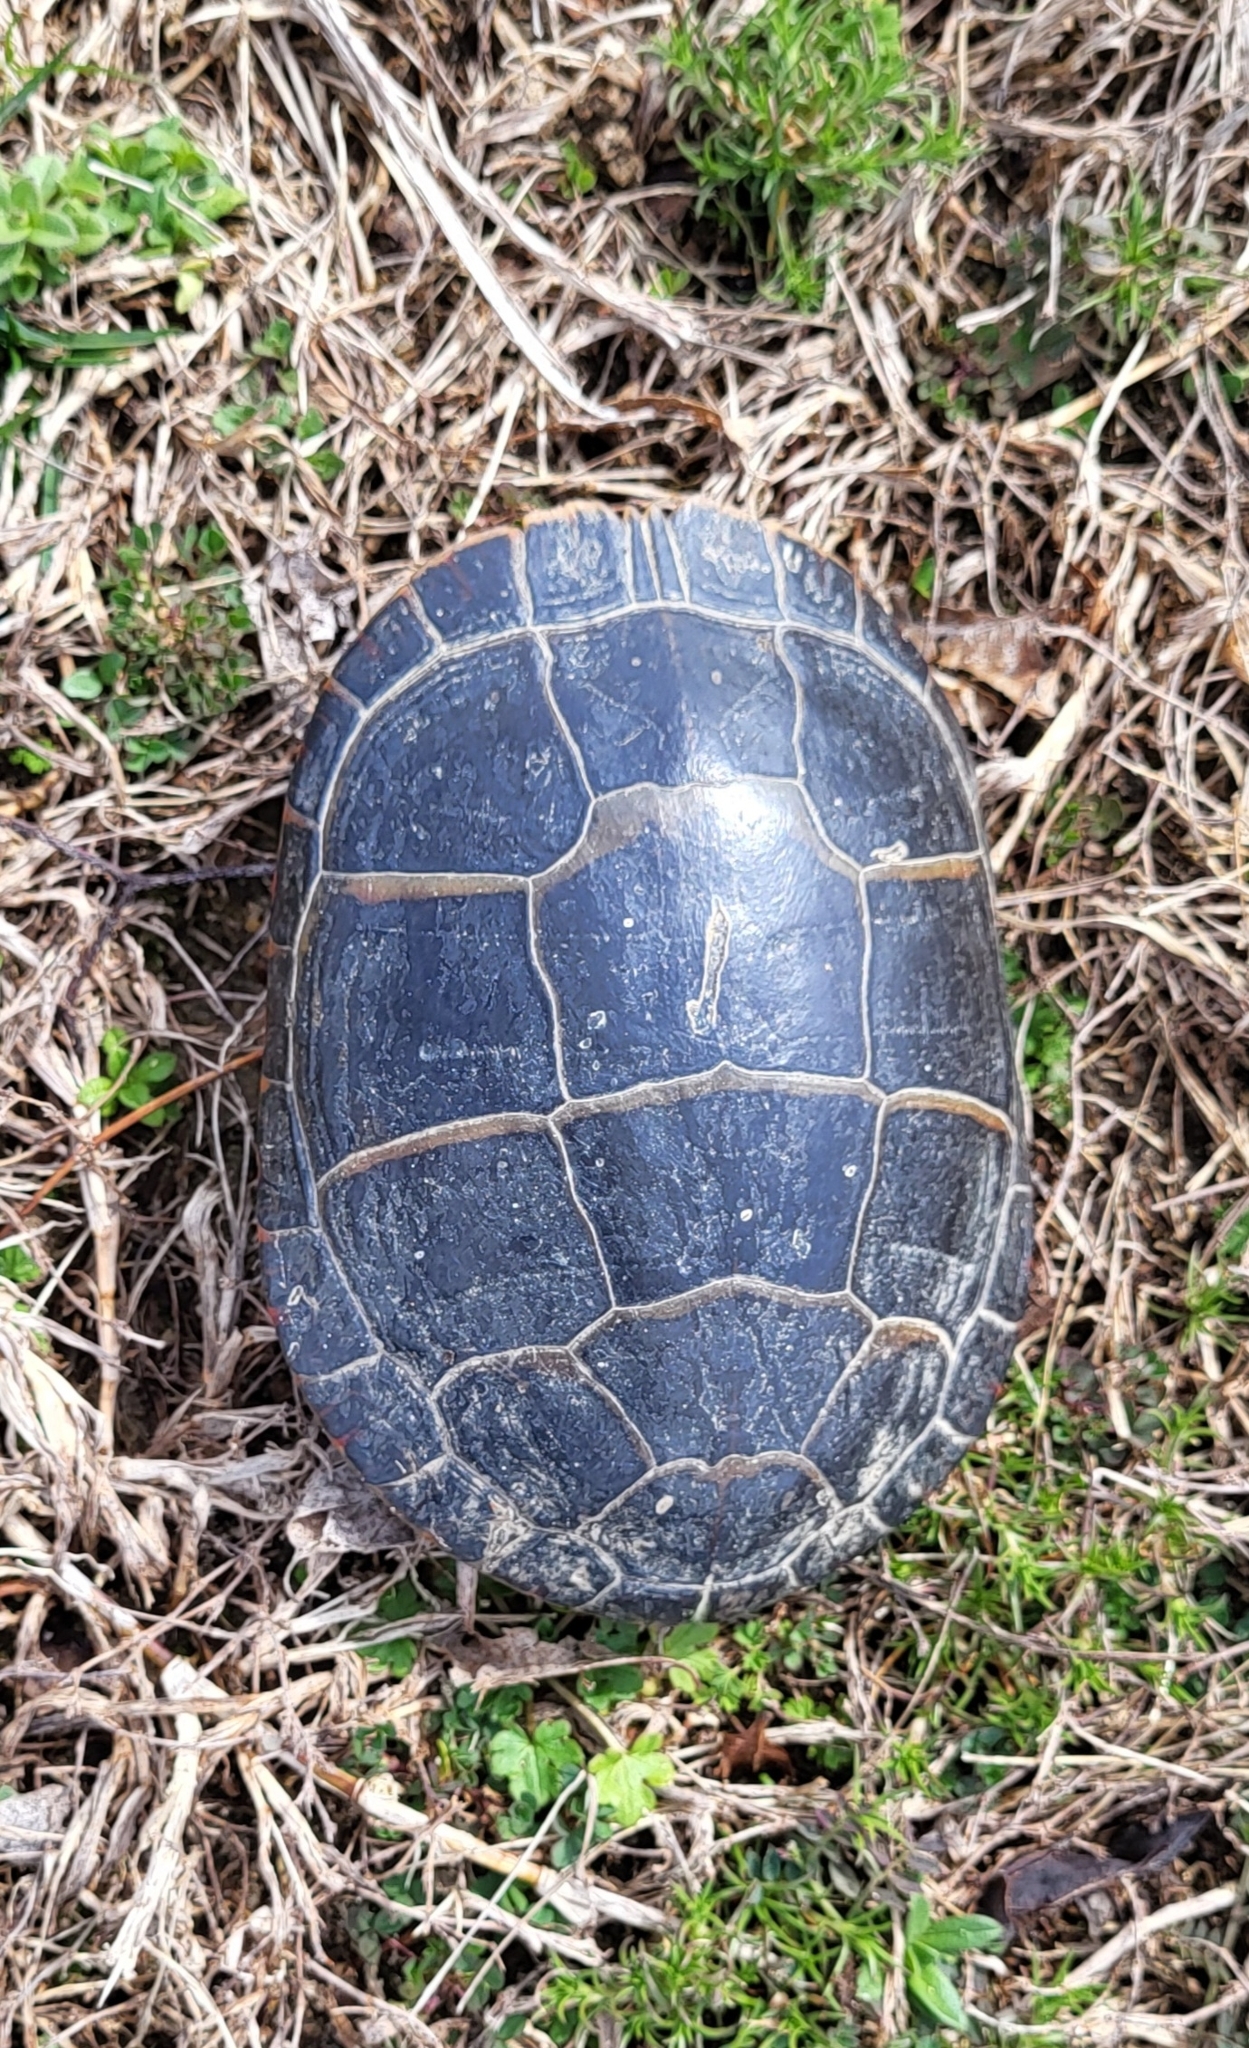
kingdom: Animalia
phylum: Chordata
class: Testudines
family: Emydidae
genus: Chrysemys
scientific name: Chrysemys picta
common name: Painted turtle
